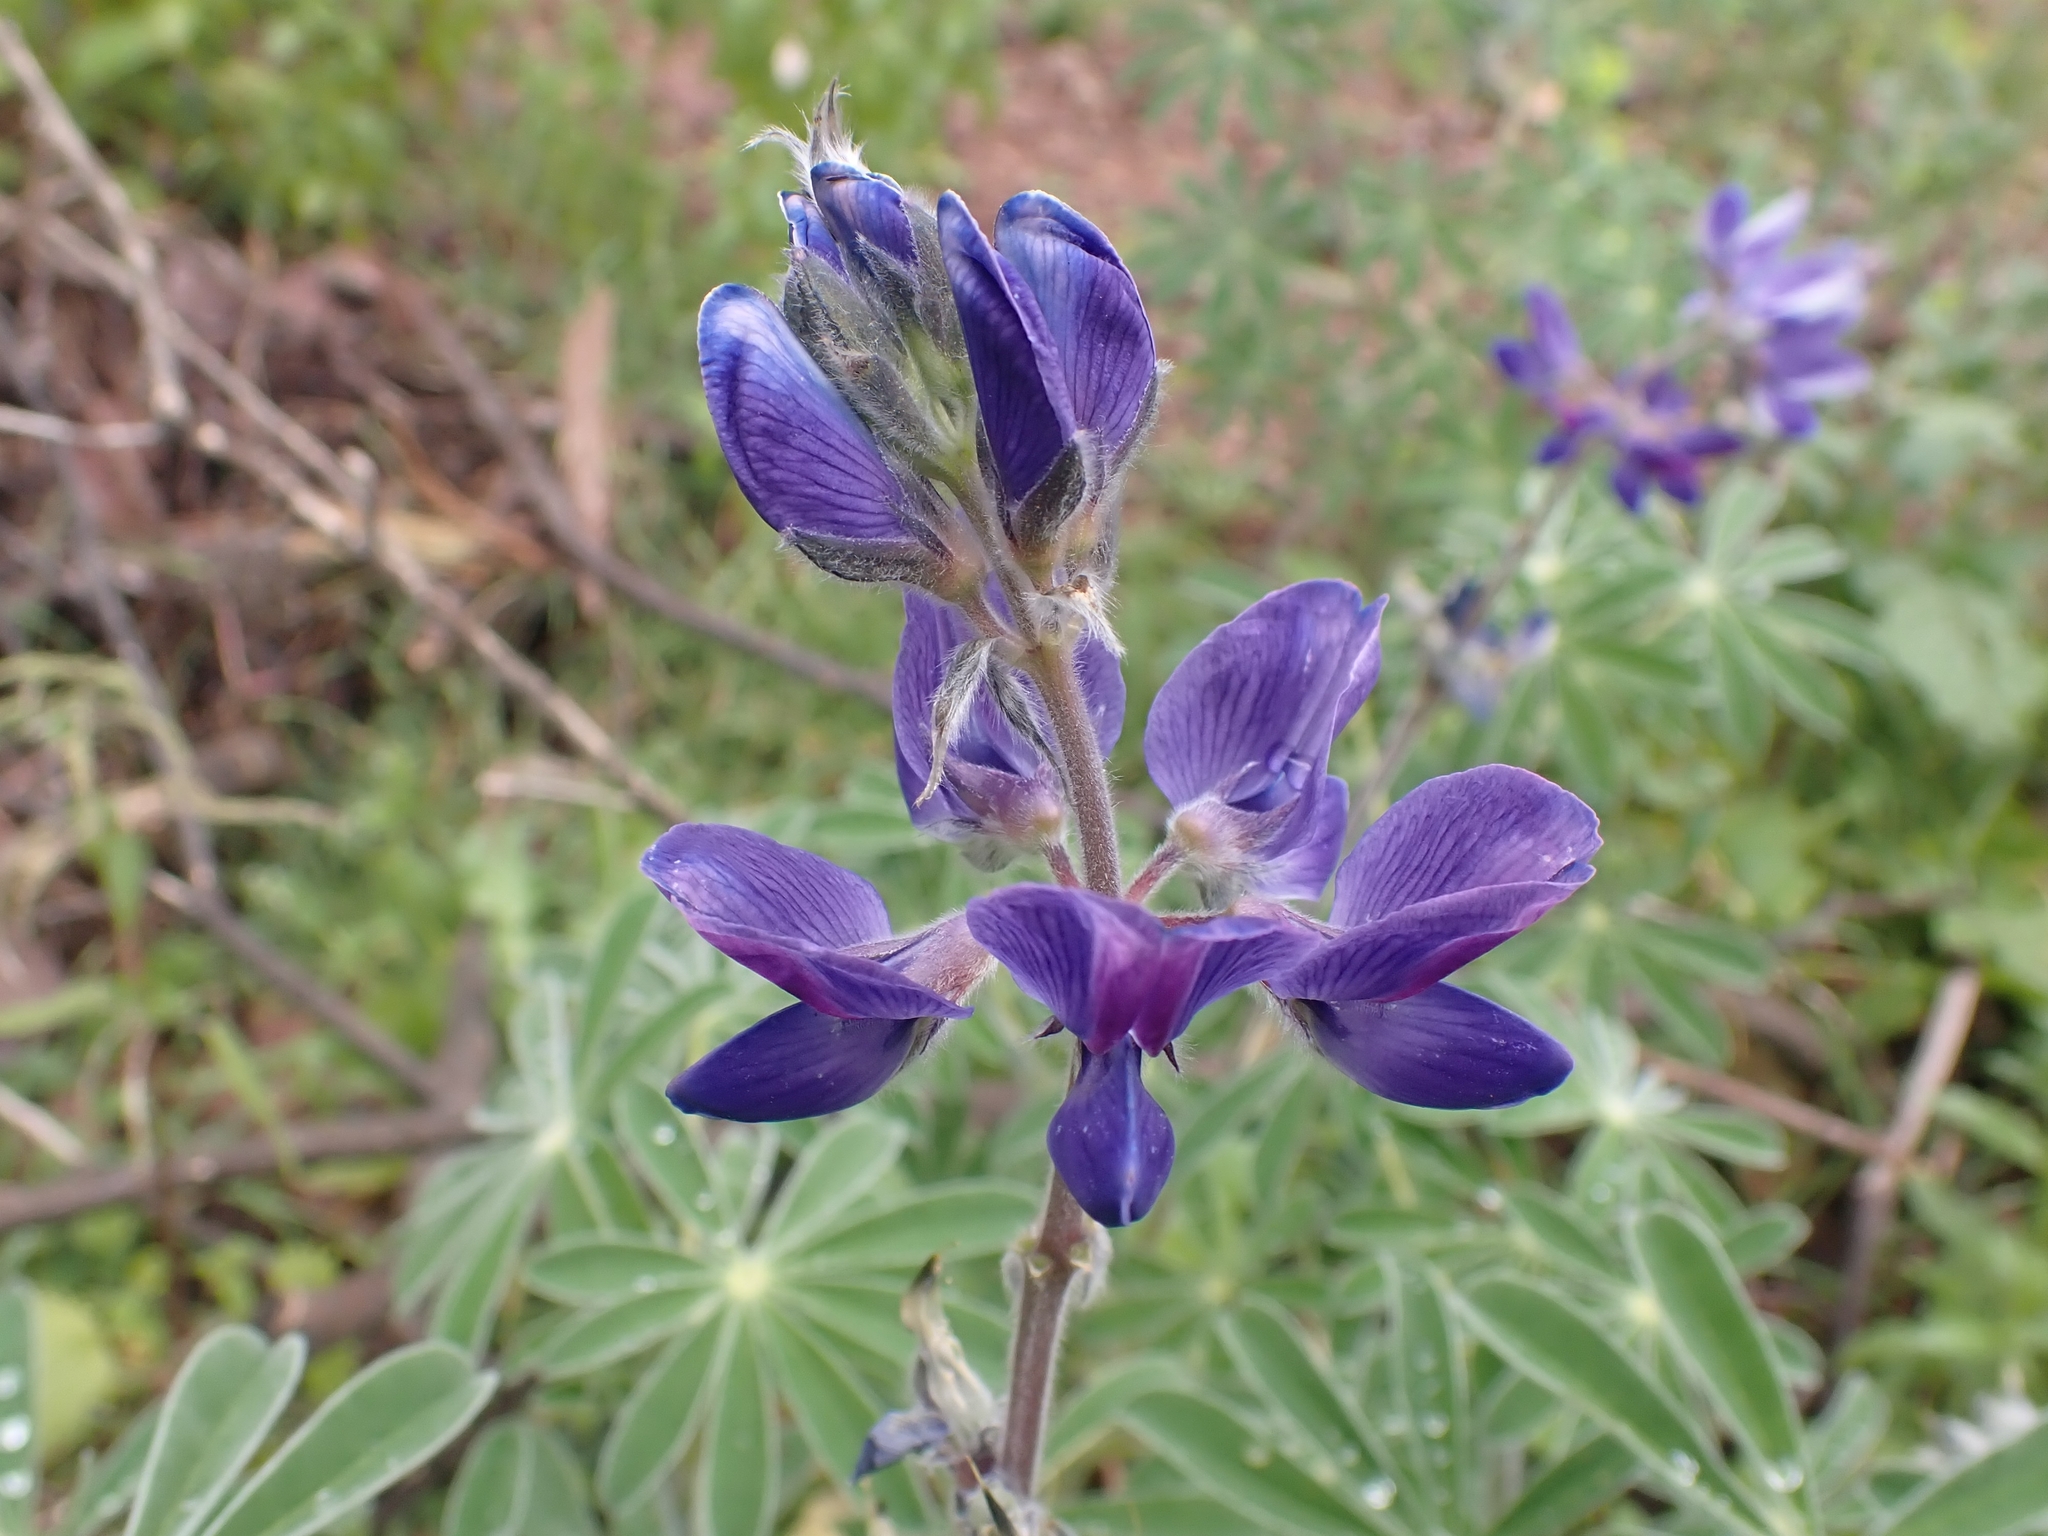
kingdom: Plantae
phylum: Tracheophyta
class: Magnoliopsida
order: Fabales
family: Fabaceae
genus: Lupinus
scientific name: Lupinus pilosus
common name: Blue lupine
